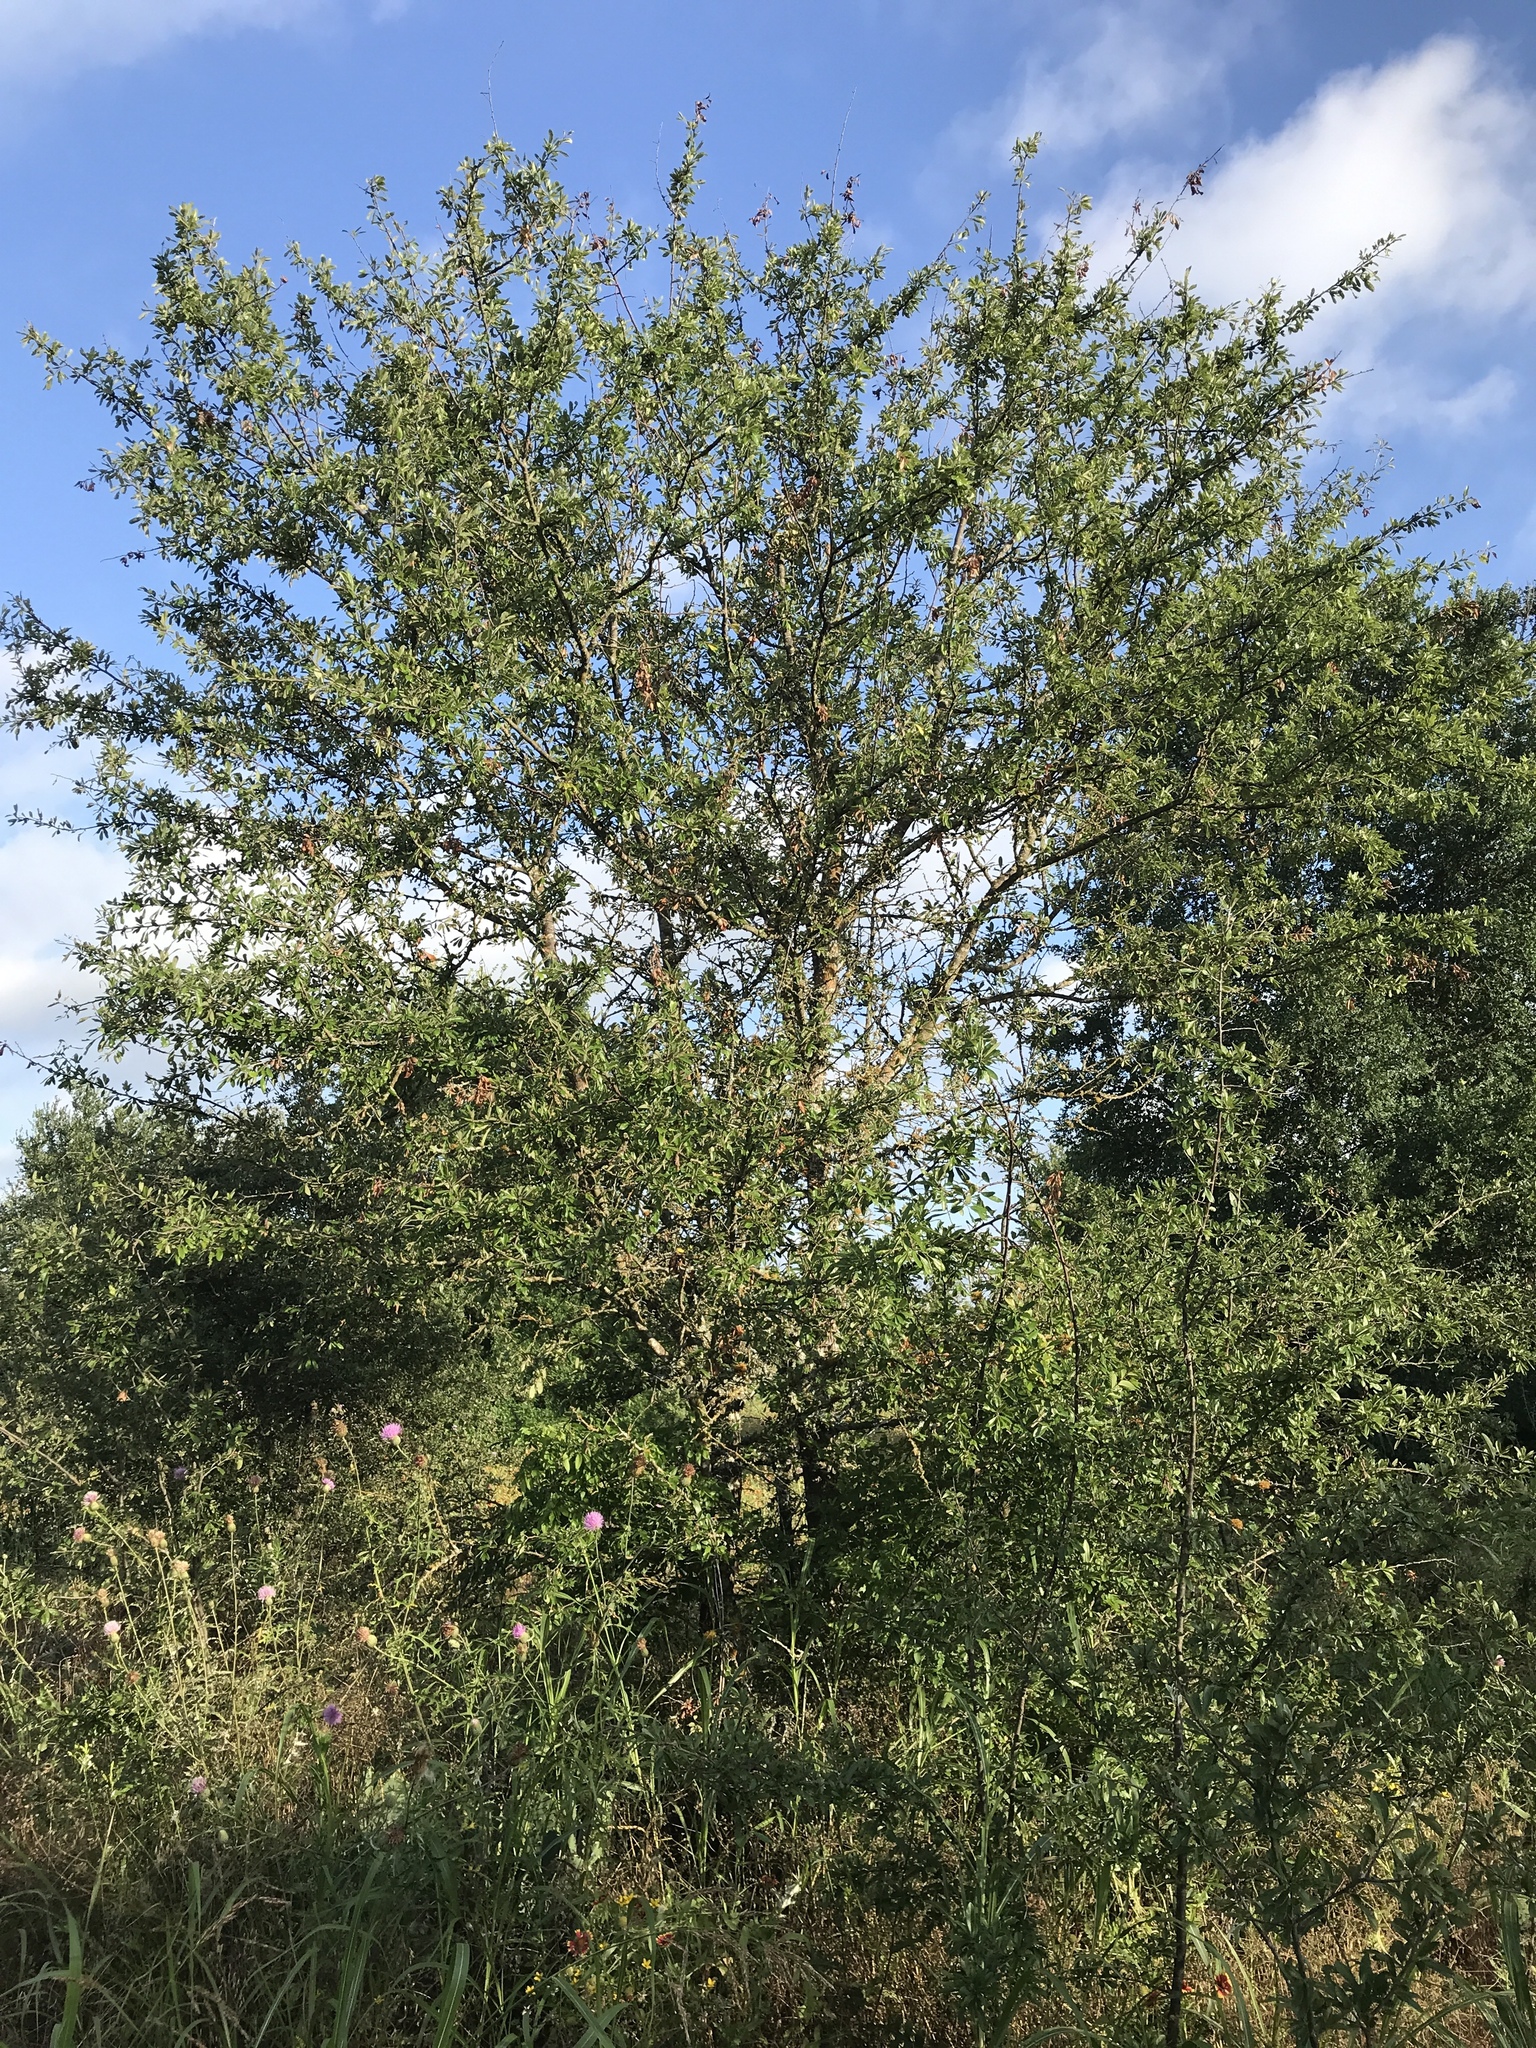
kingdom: Plantae
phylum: Tracheophyta
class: Magnoliopsida
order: Ericales
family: Sapotaceae
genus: Sideroxylon
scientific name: Sideroxylon lanuginosum
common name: Chittamwood
